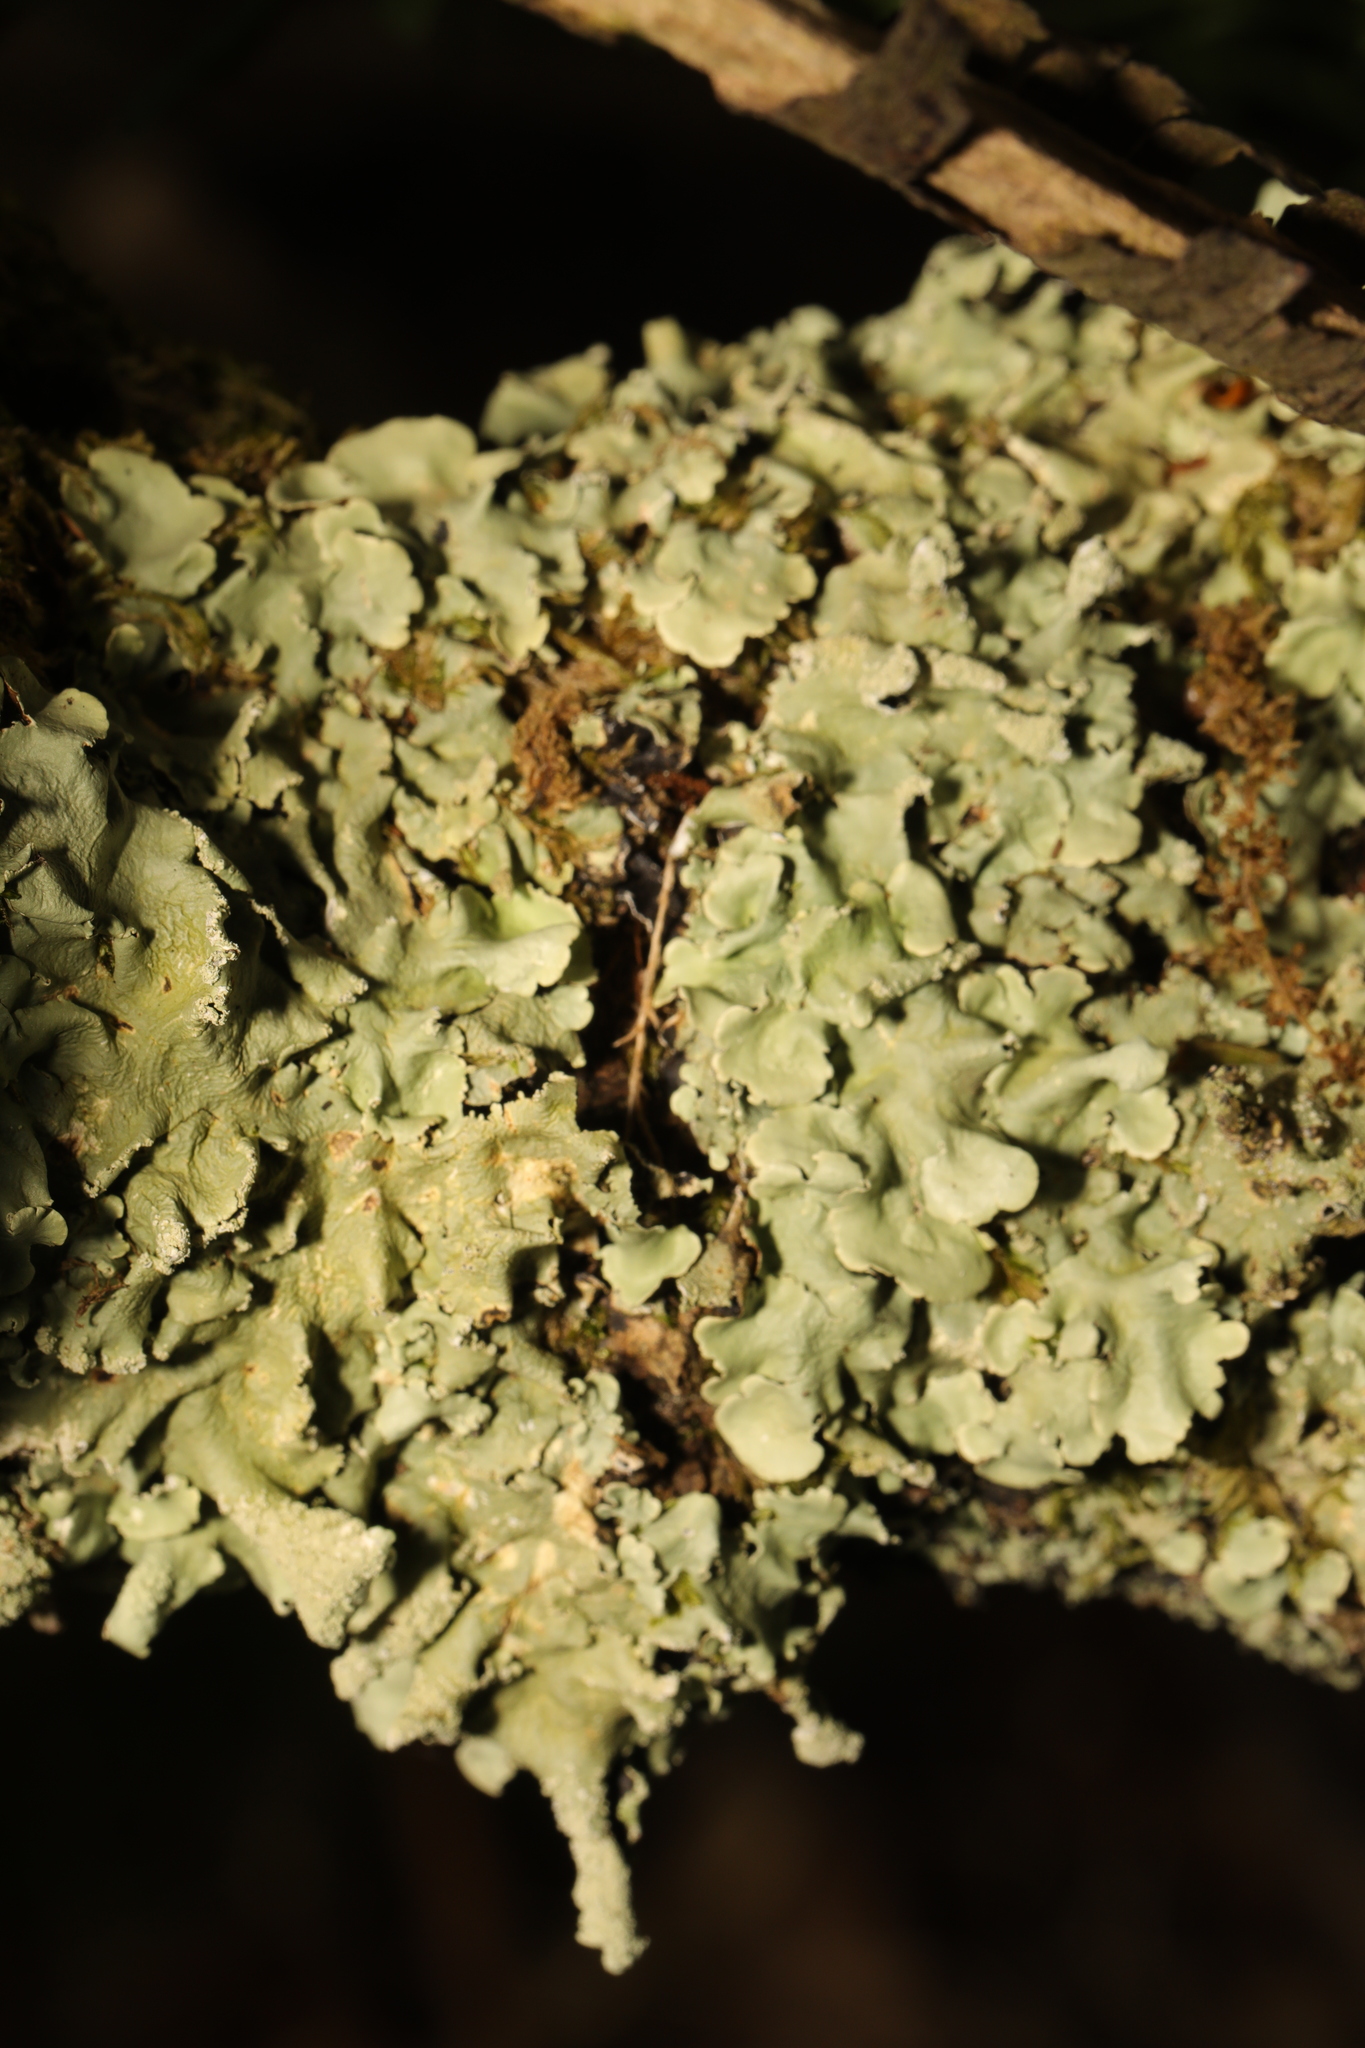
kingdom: Fungi
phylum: Ascomycota
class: Lecanoromycetes
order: Lecanorales
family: Parmeliaceae
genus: Flavoparmelia
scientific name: Flavoparmelia caperata
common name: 40-mile per hour lichen
